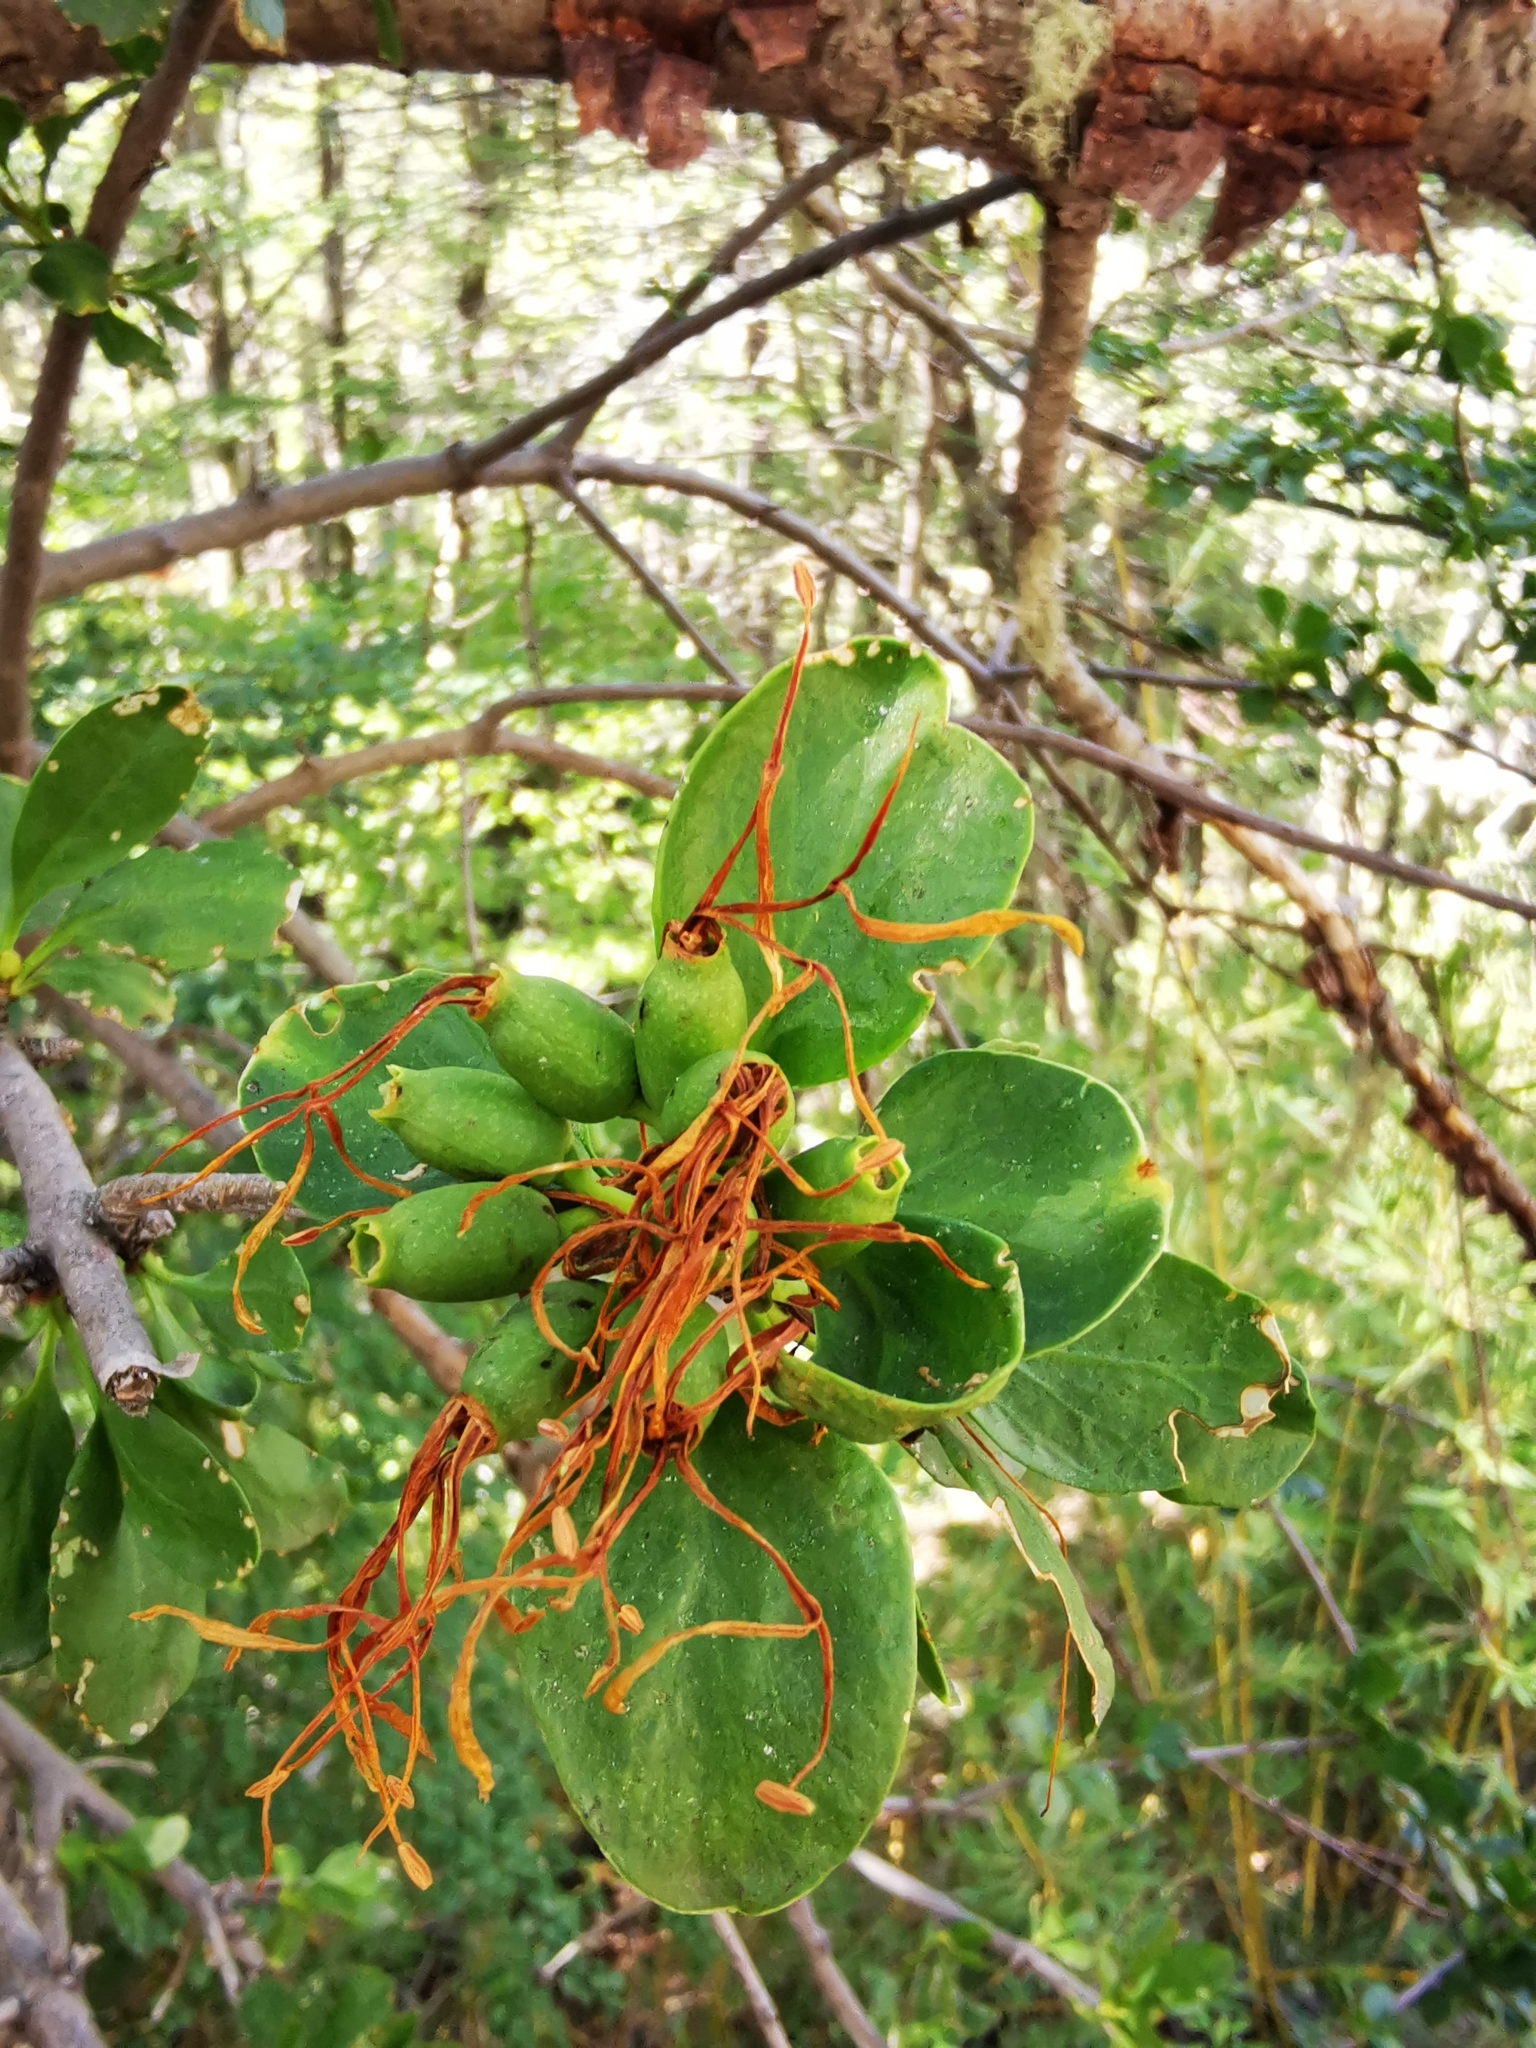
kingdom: Plantae
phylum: Tracheophyta
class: Magnoliopsida
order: Santalales
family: Loranthaceae
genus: Desmaria
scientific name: Desmaria mutabilis
